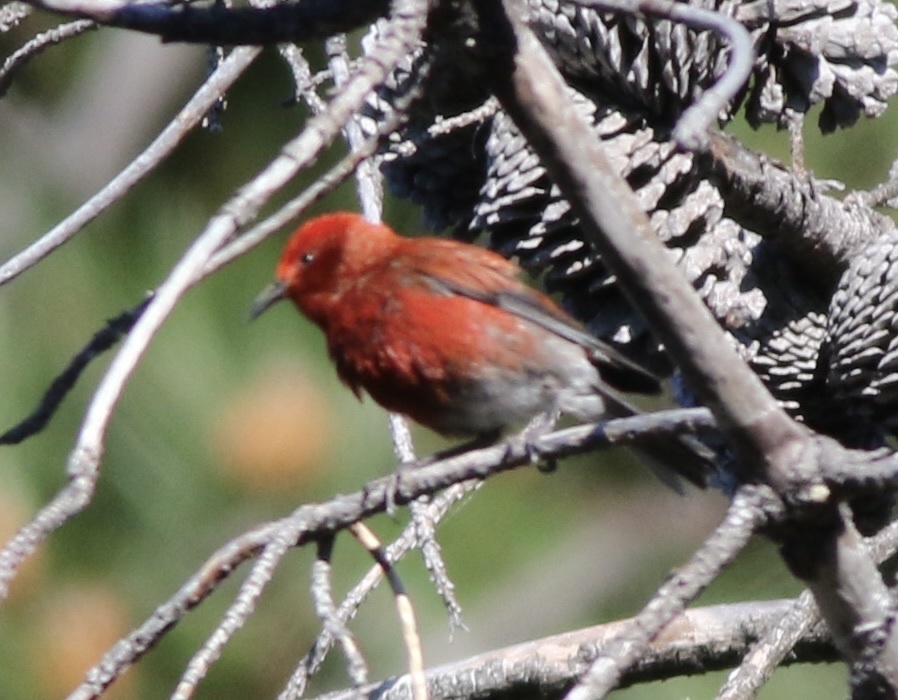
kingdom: Animalia
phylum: Chordata
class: Aves
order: Passeriformes
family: Fringillidae
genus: Himatione
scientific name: Himatione sanguinea
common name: Apapane
